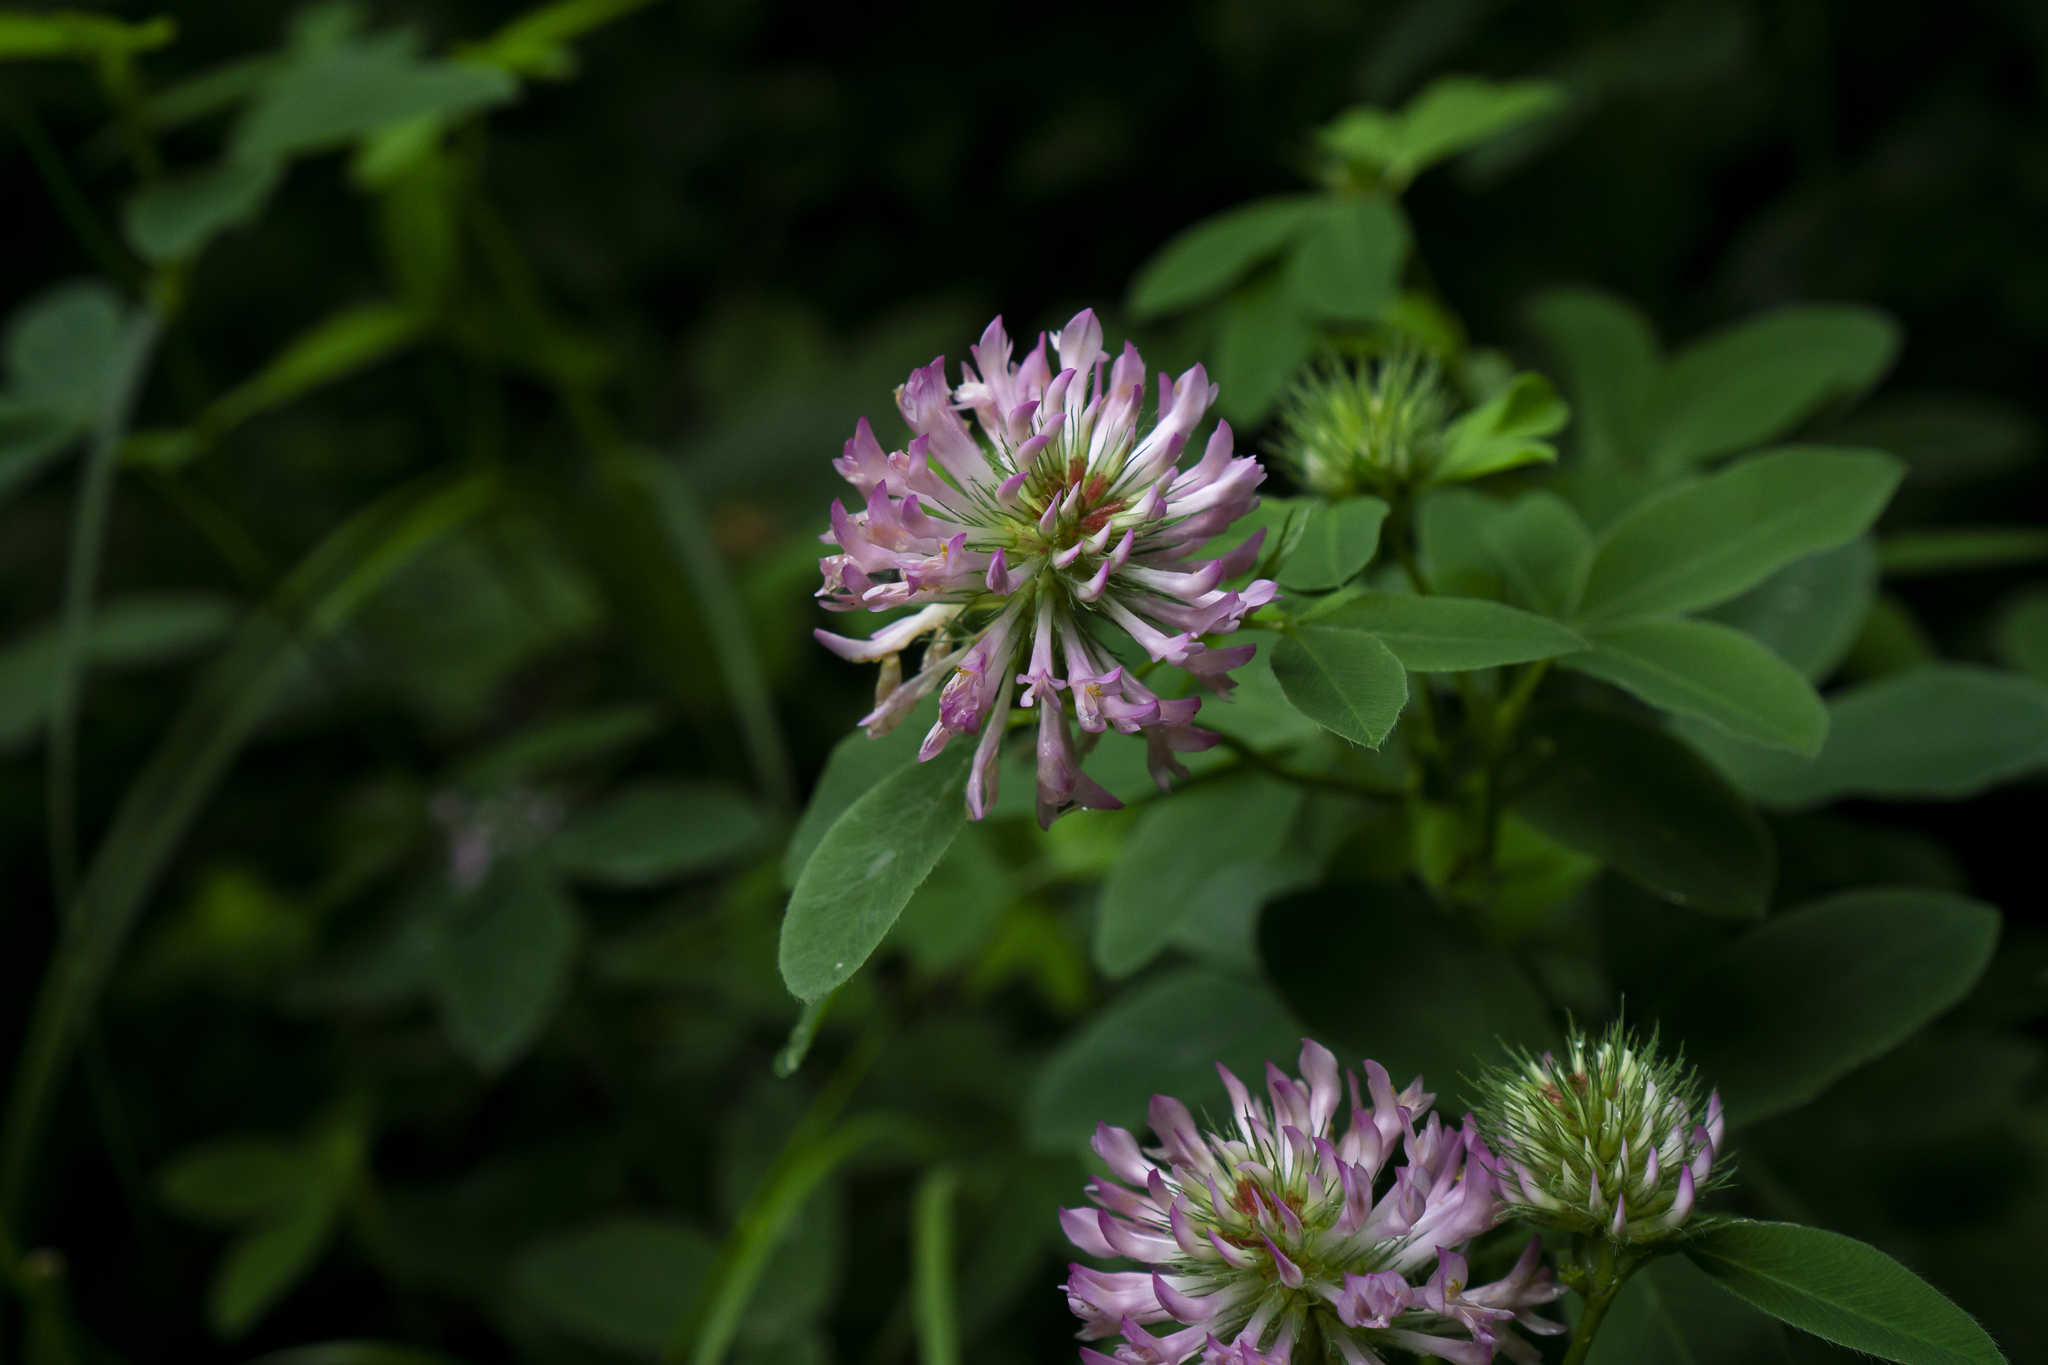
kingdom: Plantae
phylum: Tracheophyta
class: Magnoliopsida
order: Fabales
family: Fabaceae
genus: Trifolium
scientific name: Trifolium medium
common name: Zigzag clover
